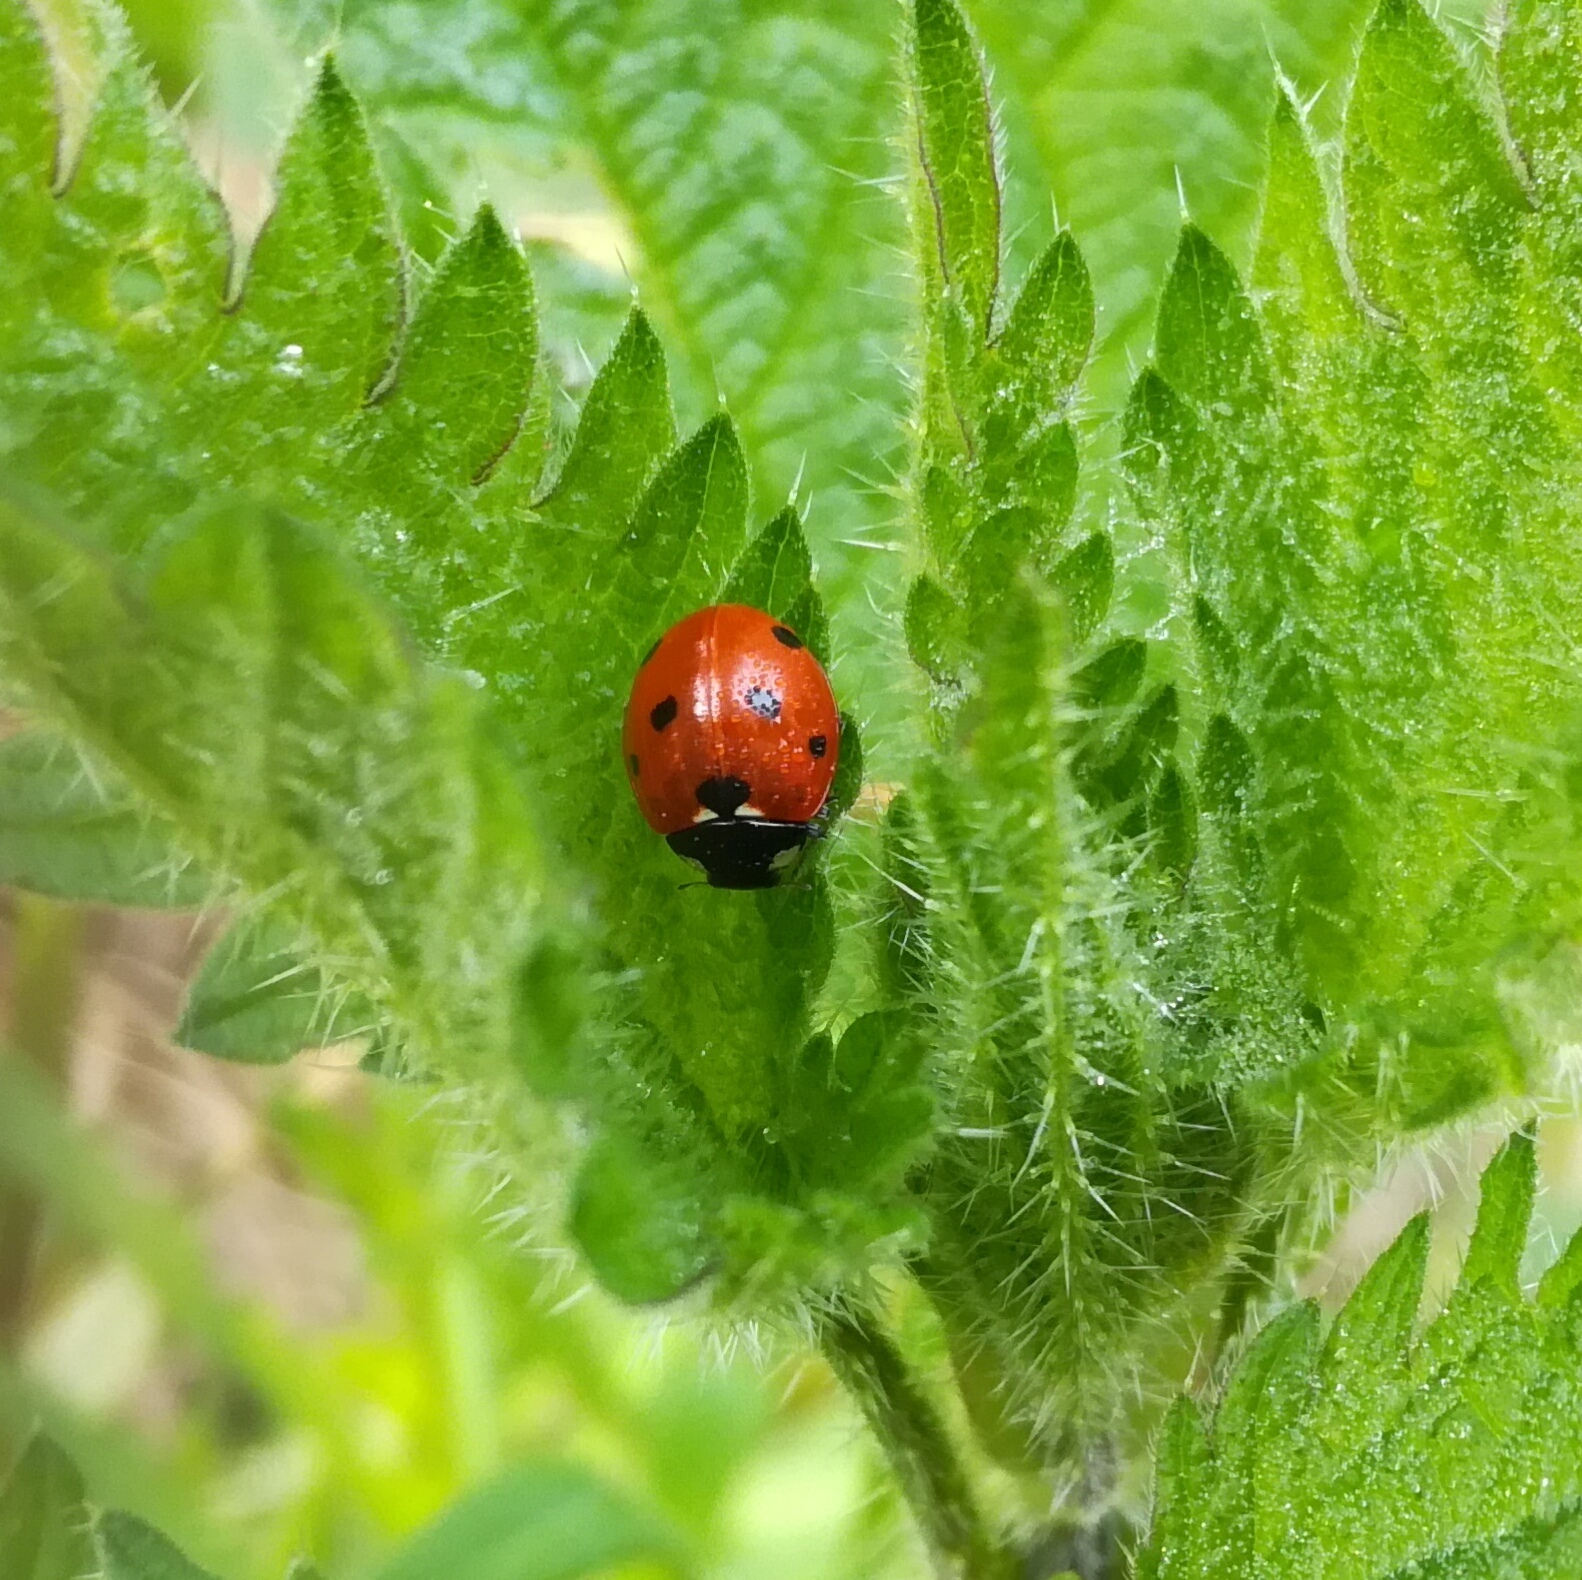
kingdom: Animalia
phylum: Arthropoda
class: Insecta
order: Coleoptera
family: Coccinellidae
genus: Coccinella
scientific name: Coccinella septempunctata
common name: Sevenspotted lady beetle
